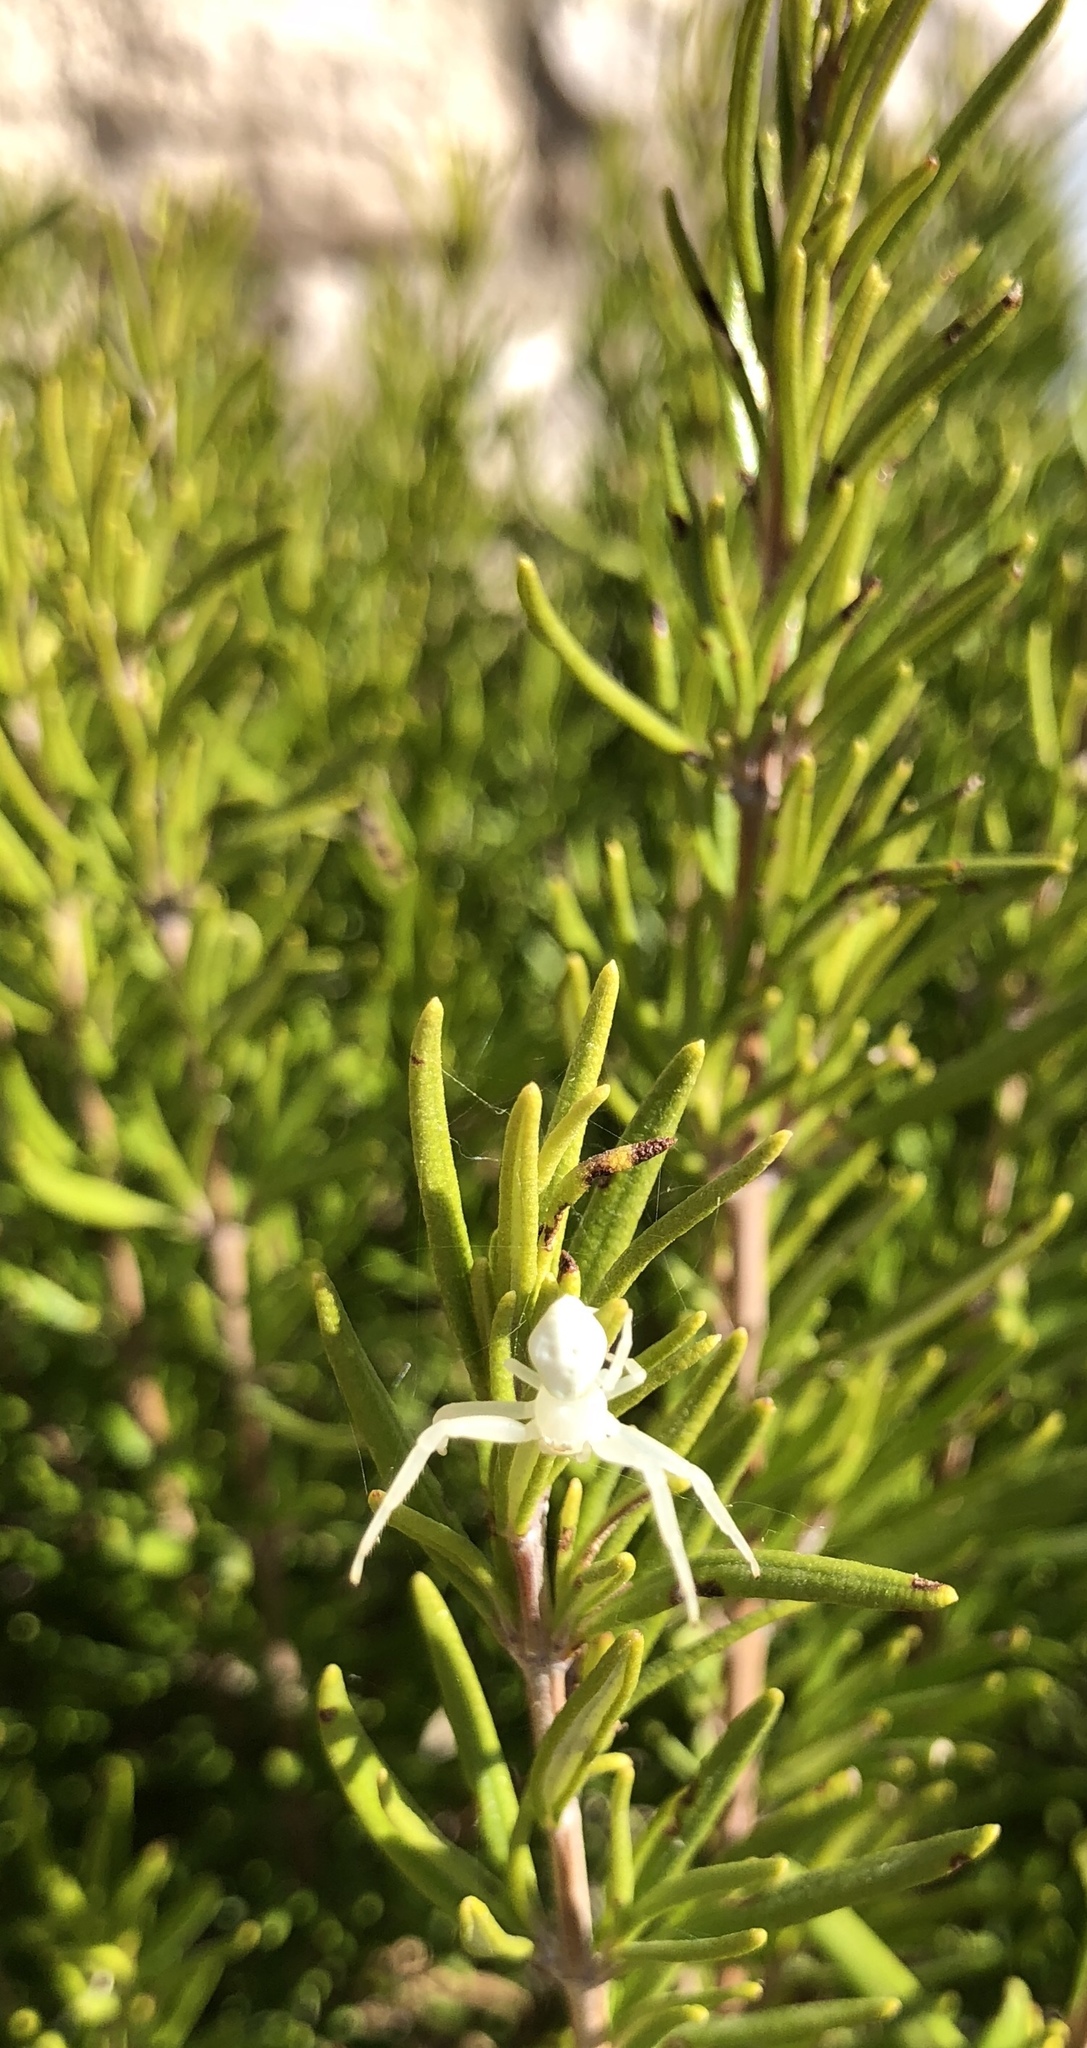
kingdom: Animalia
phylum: Arthropoda
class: Arachnida
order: Araneae
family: Thomisidae
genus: Misumena
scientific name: Misumena vatia
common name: Goldenrod crab spider
